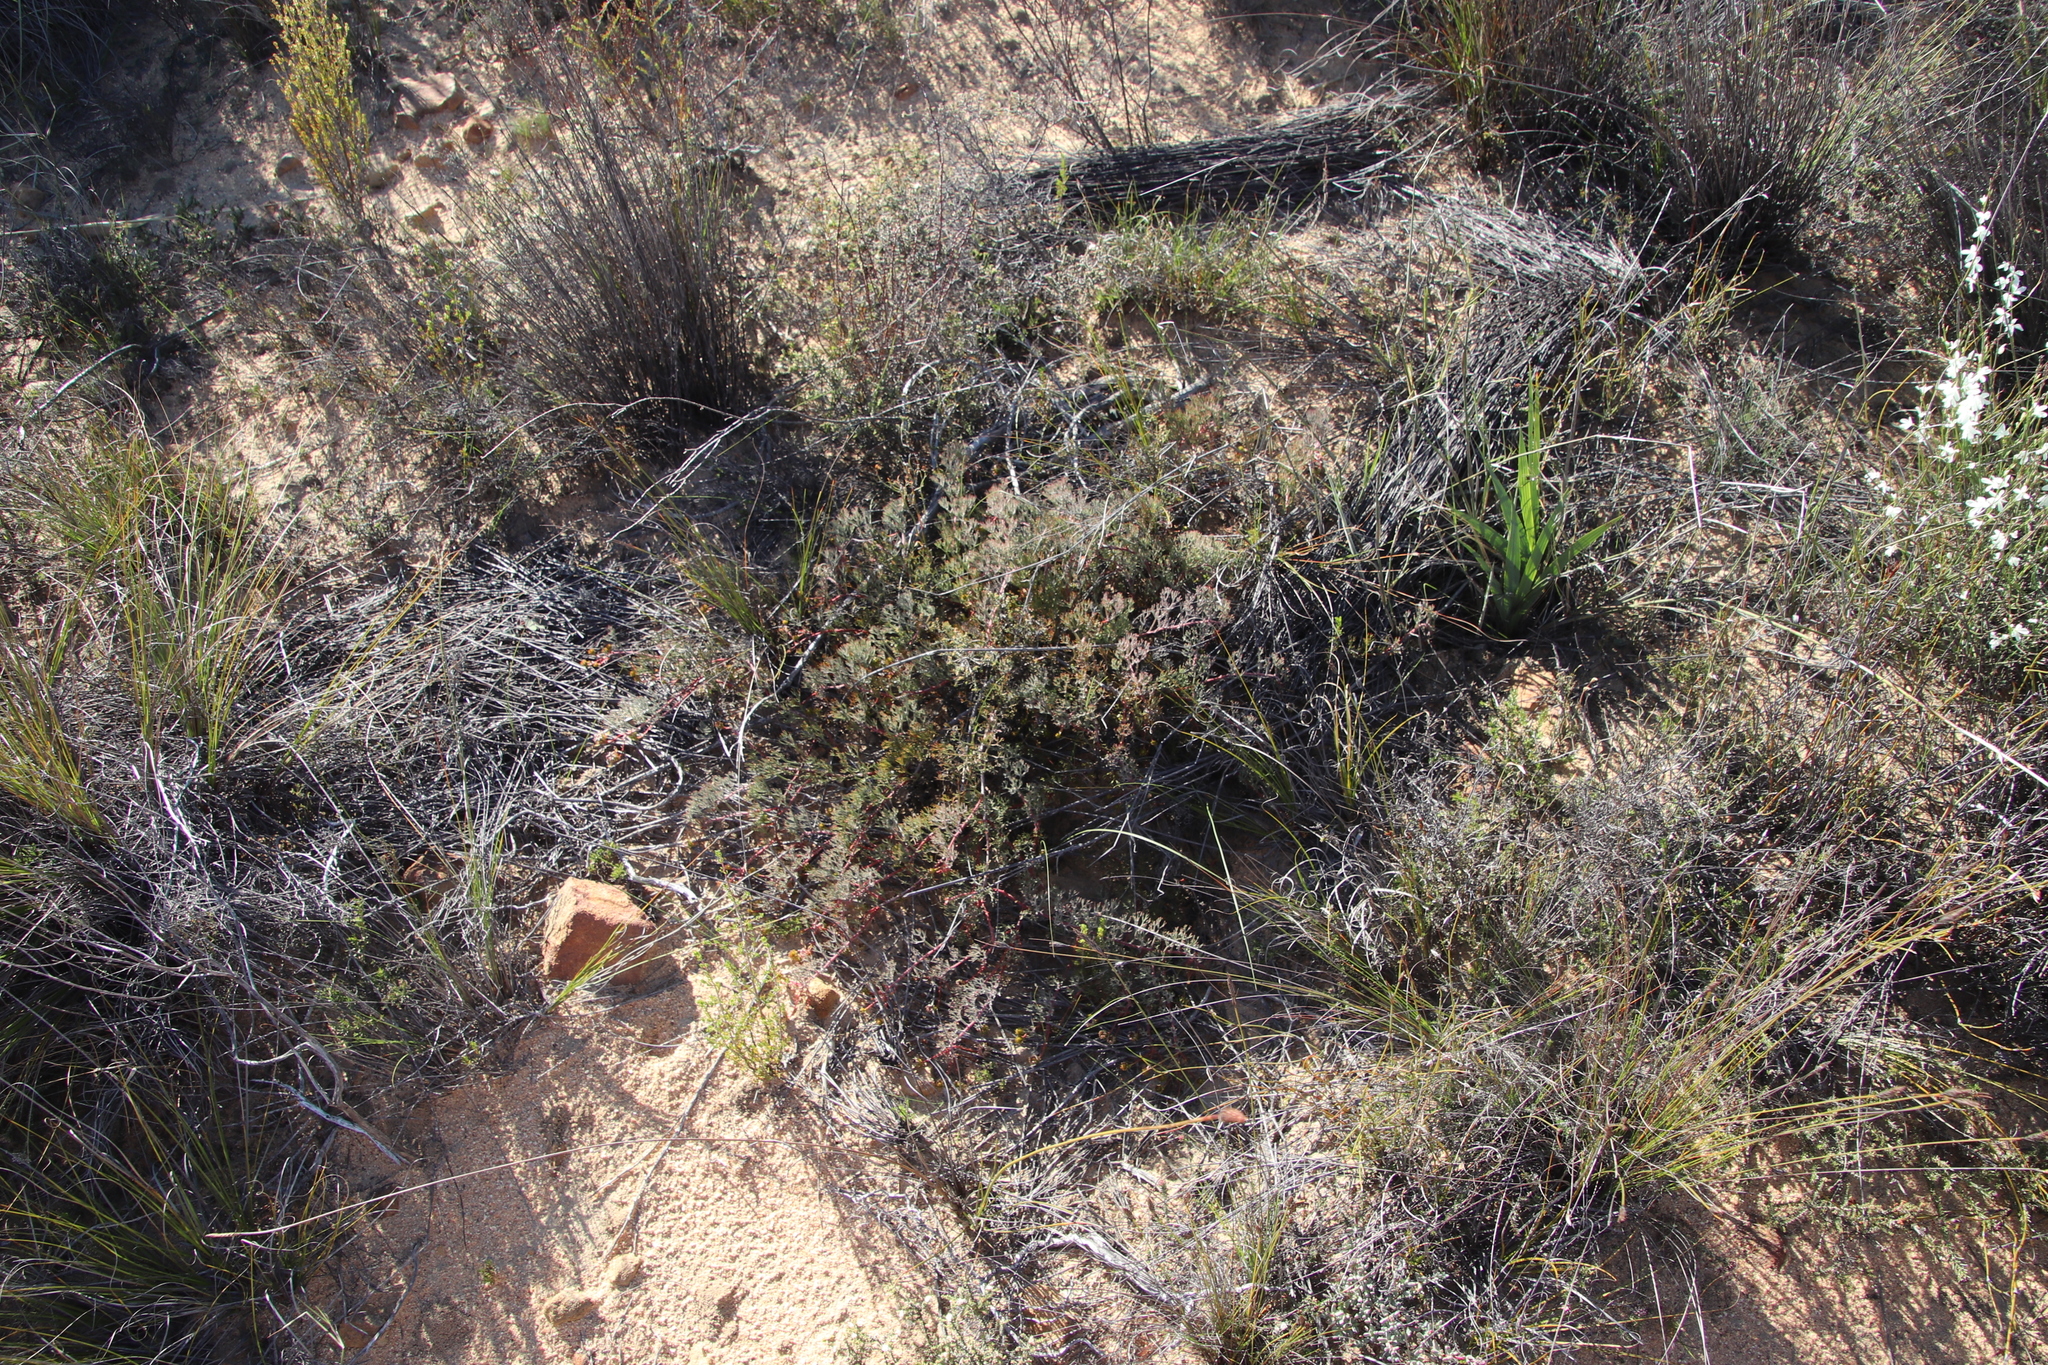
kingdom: Plantae
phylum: Tracheophyta
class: Magnoliopsida
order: Proteales
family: Proteaceae
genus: Serruria
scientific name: Serruria effusa
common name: Candelabra spiderhead
